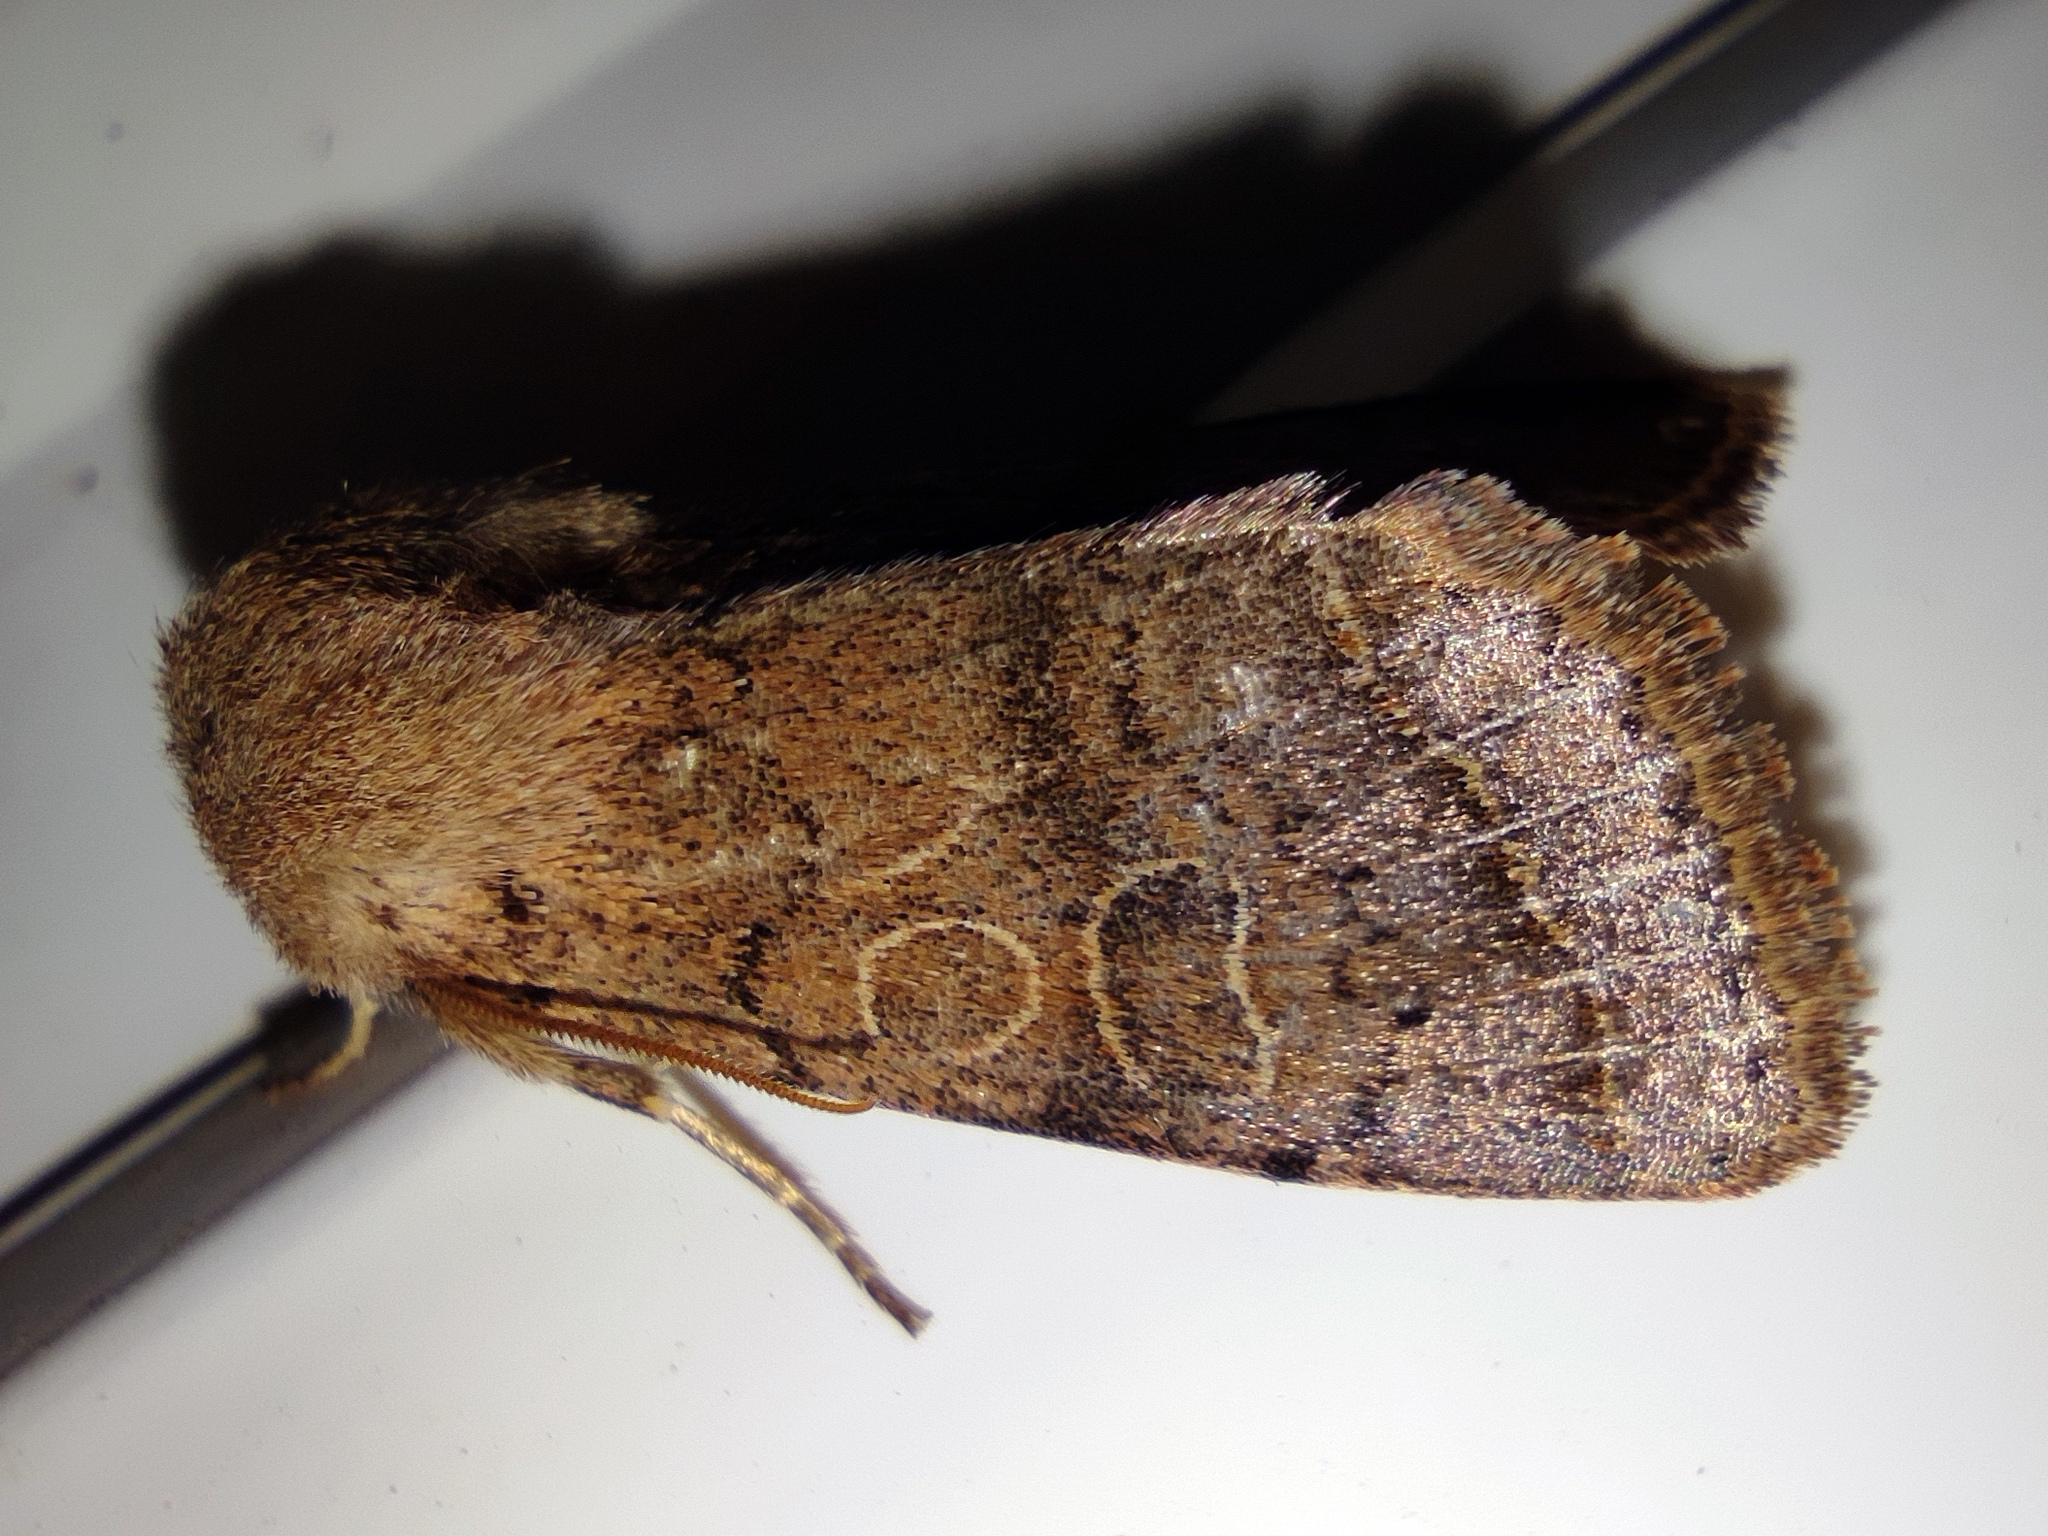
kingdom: Animalia
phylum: Arthropoda
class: Insecta
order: Lepidoptera
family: Noctuidae
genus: Orthosia
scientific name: Orthosia cerasi
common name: Common quaker
